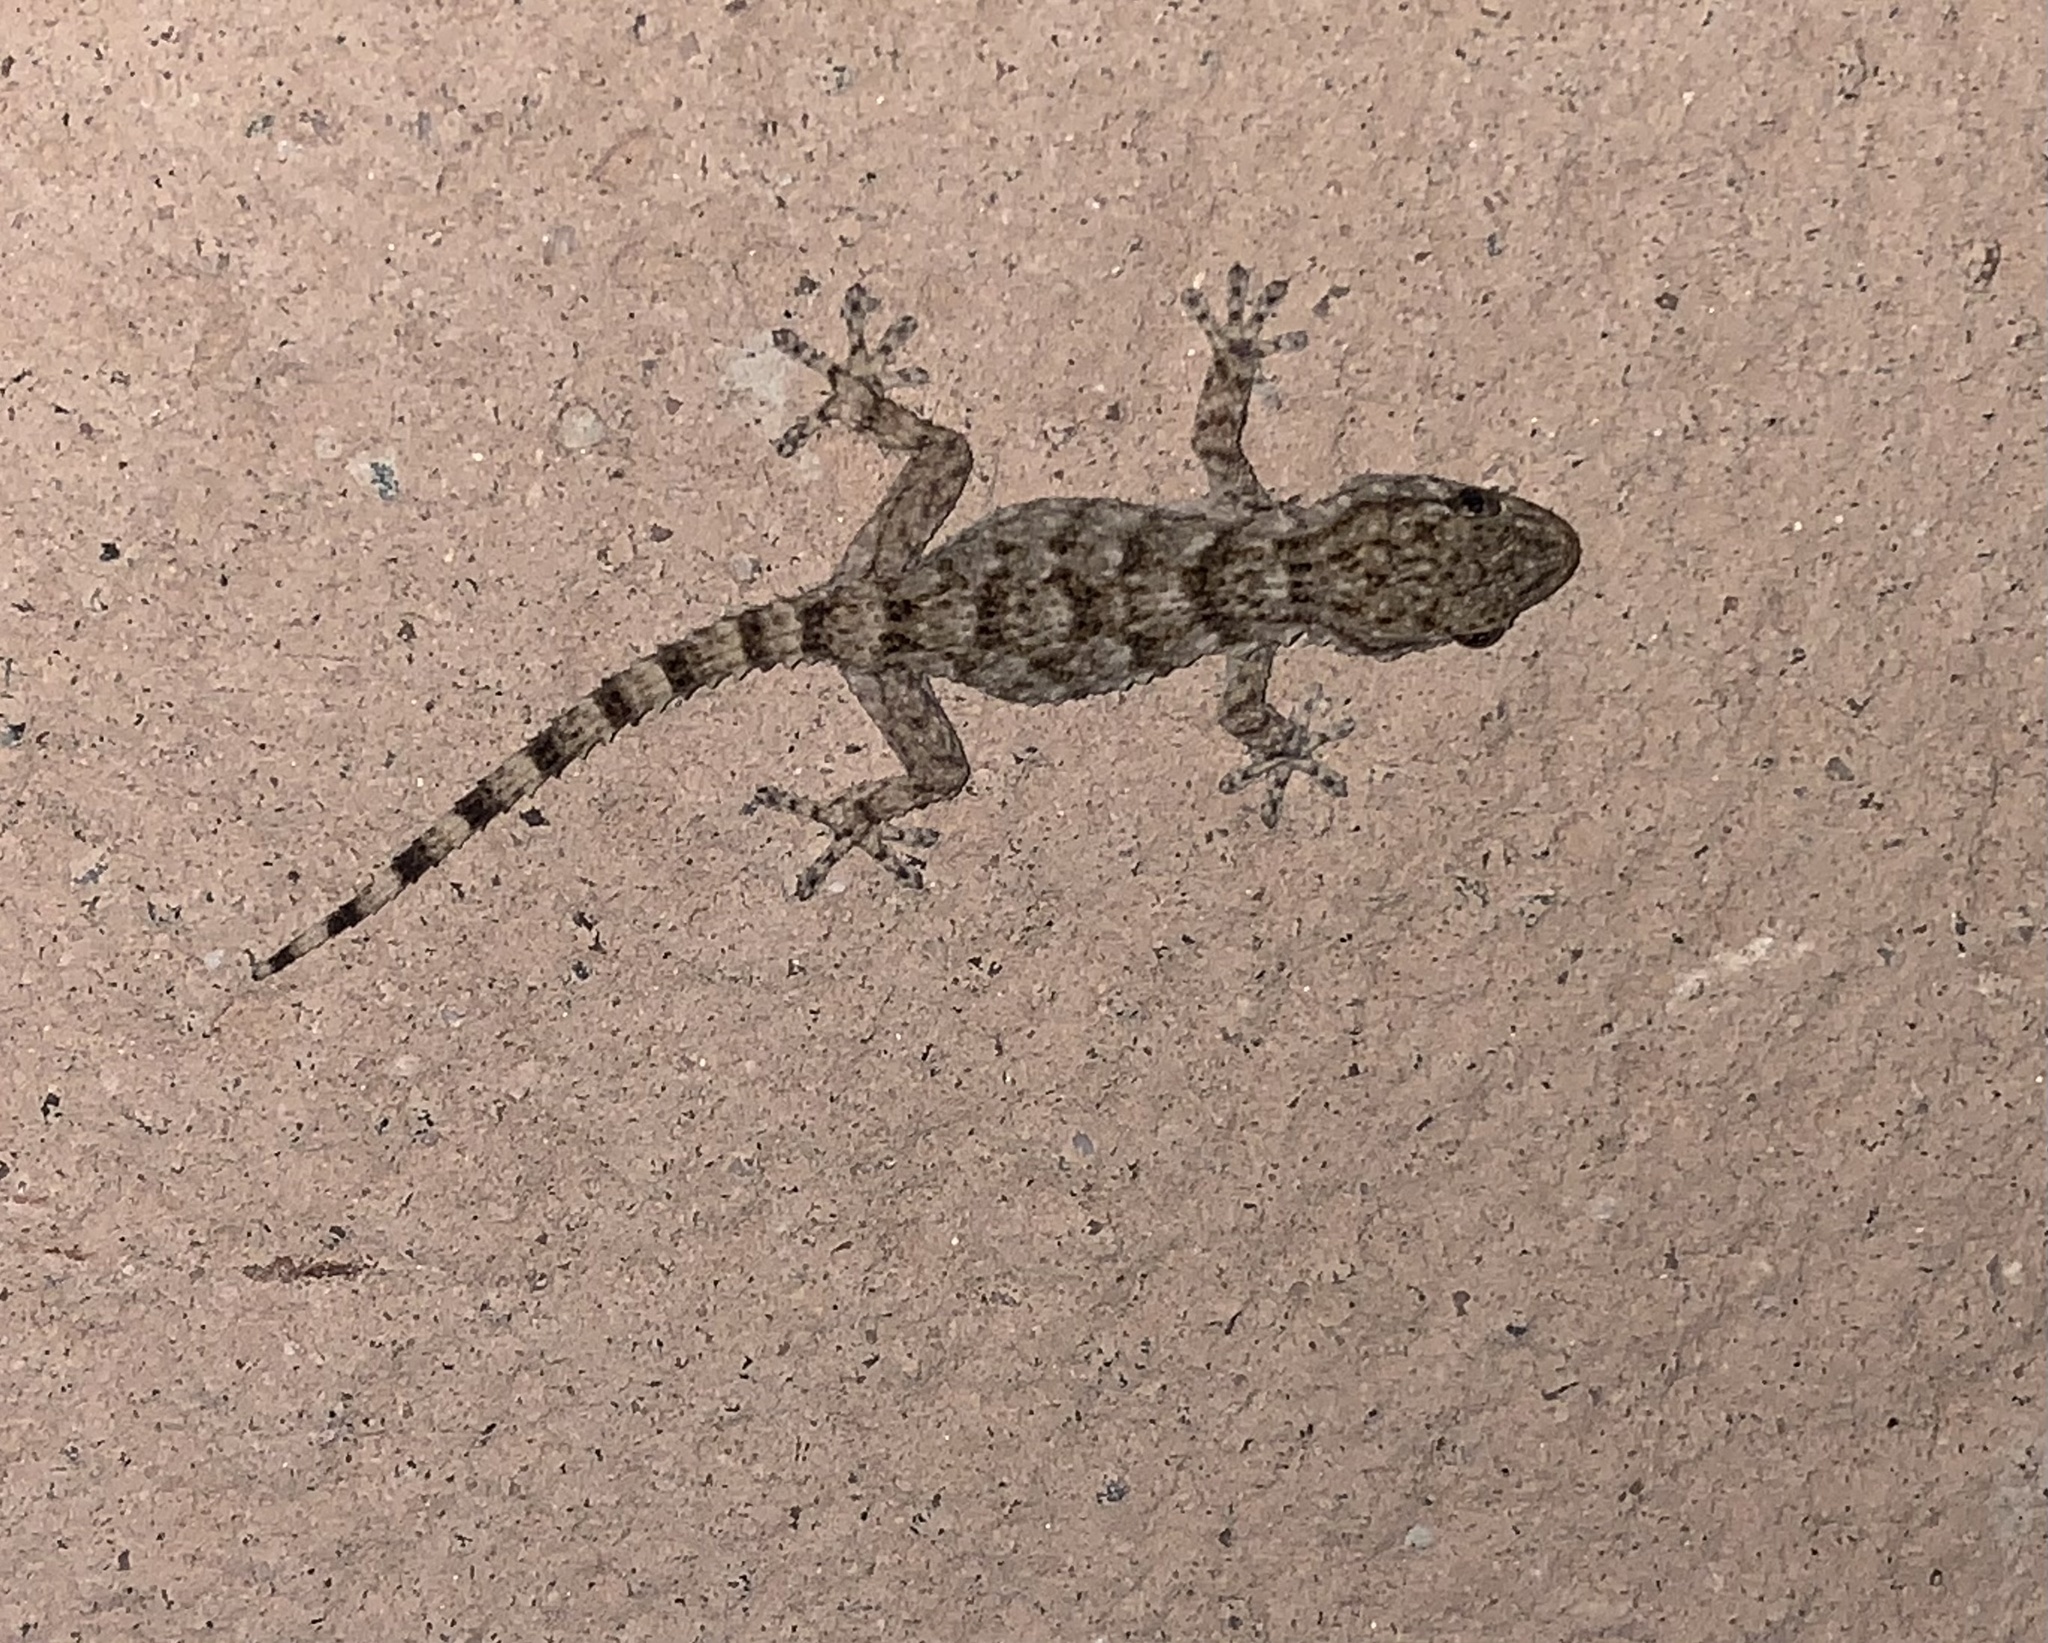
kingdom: Animalia
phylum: Chordata
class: Squamata
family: Phyllodactylidae
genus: Tarentola
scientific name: Tarentola mauritanica
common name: Moorish gecko
